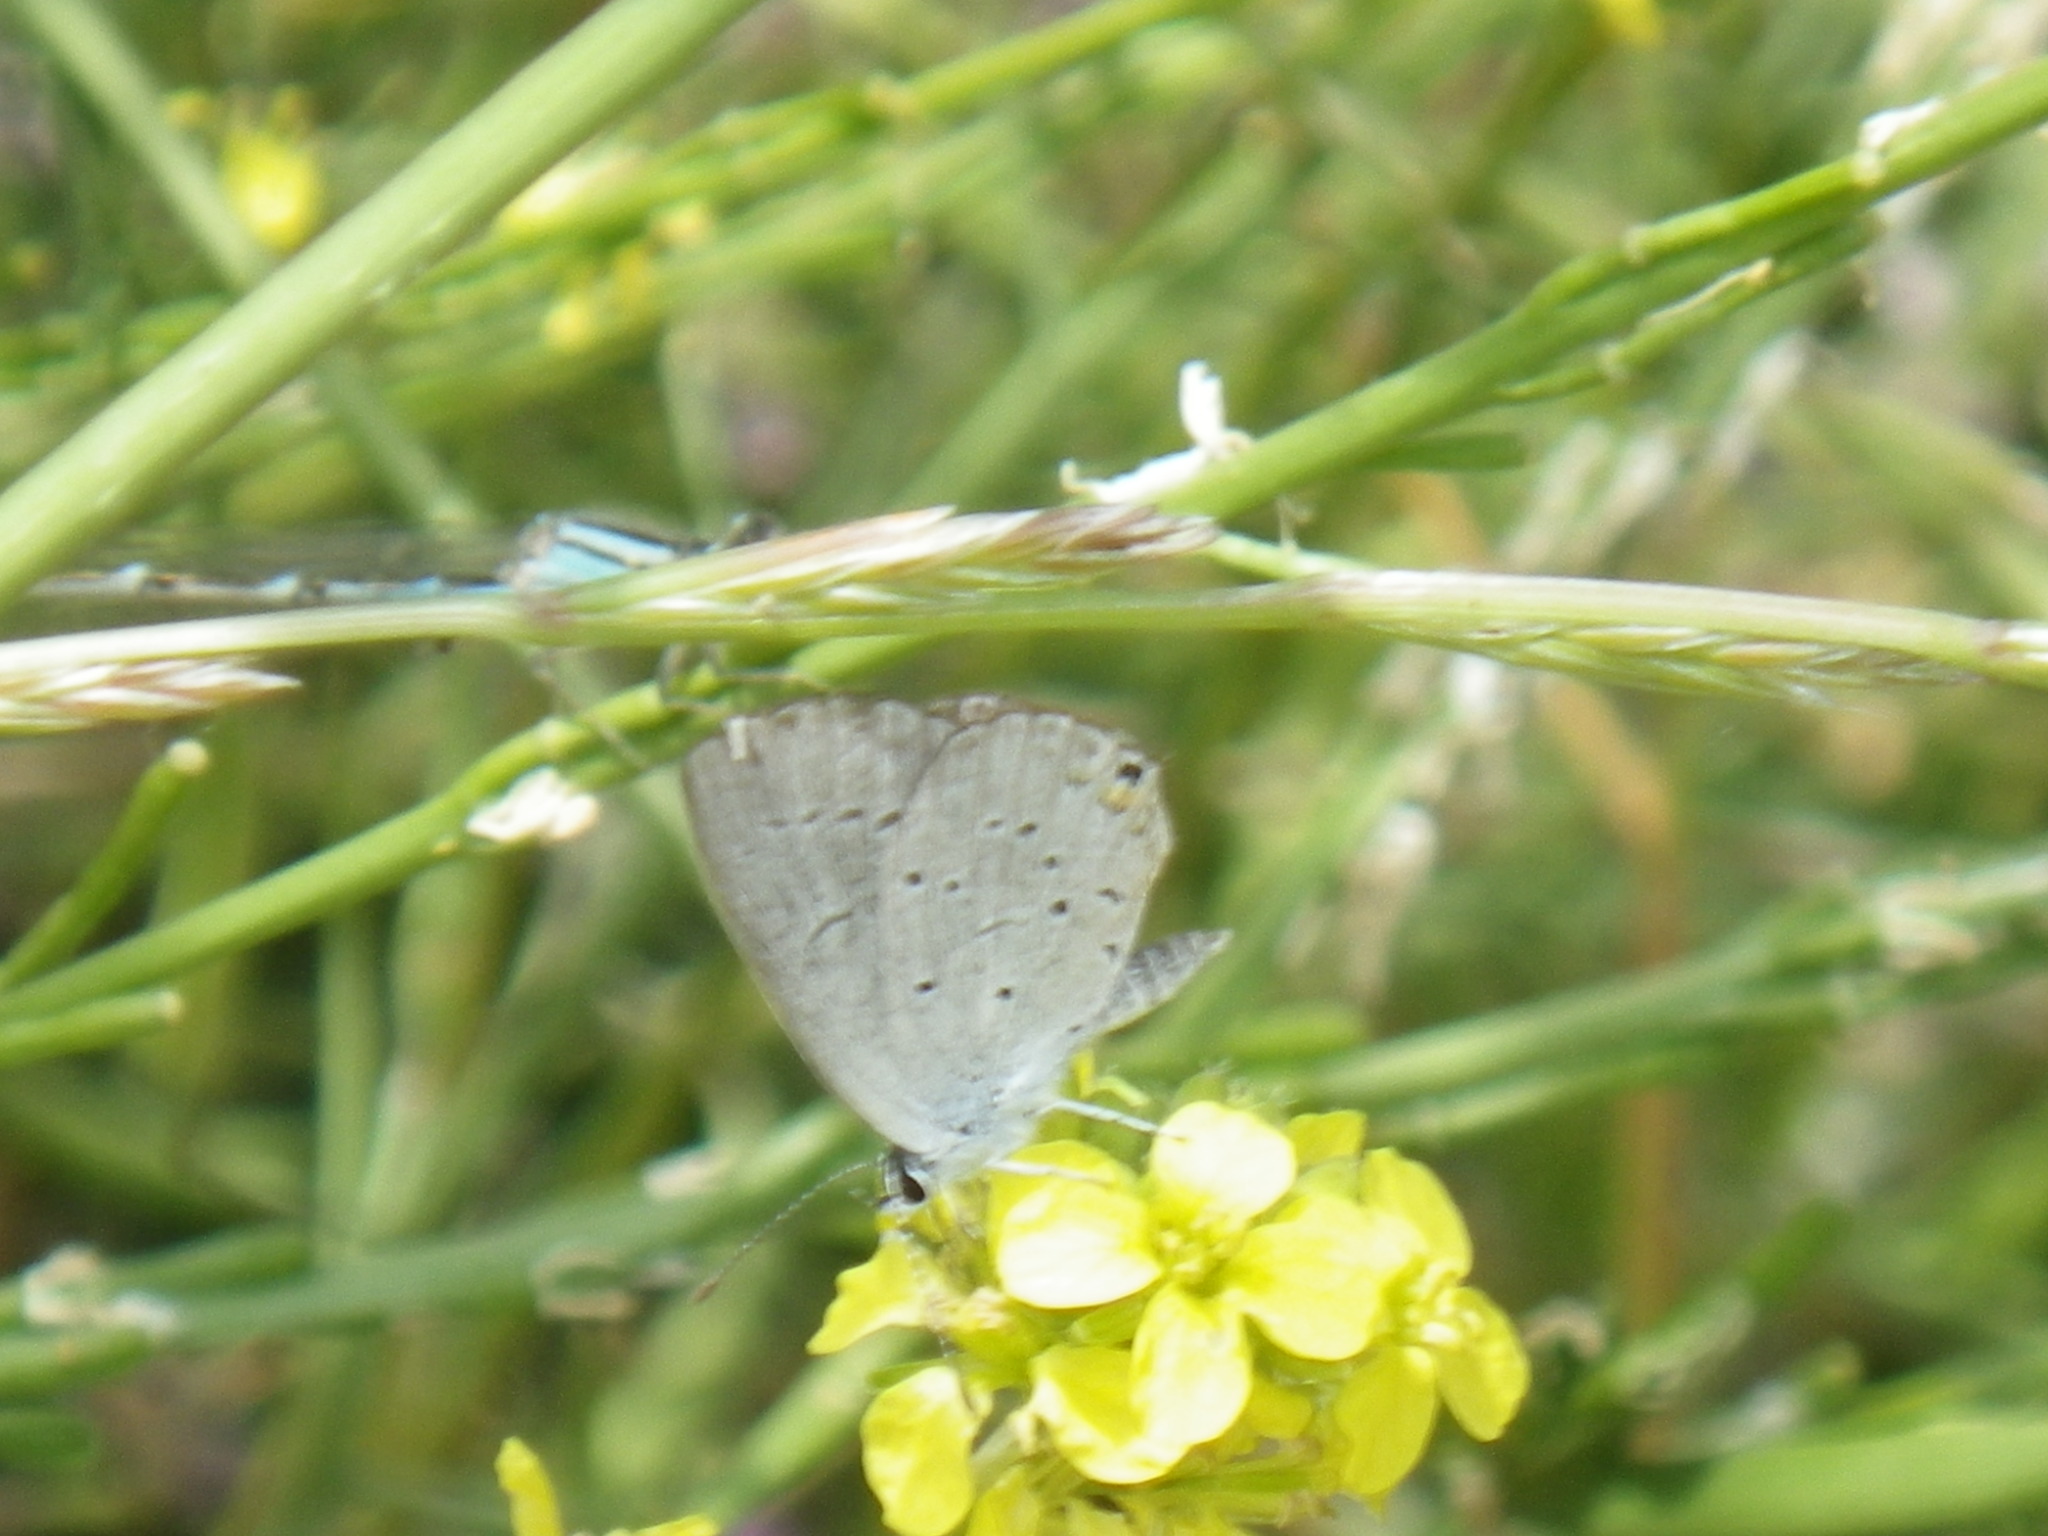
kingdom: Animalia
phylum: Arthropoda
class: Insecta
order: Lepidoptera
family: Lycaenidae
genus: Elkalyce
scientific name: Elkalyce comyntas
